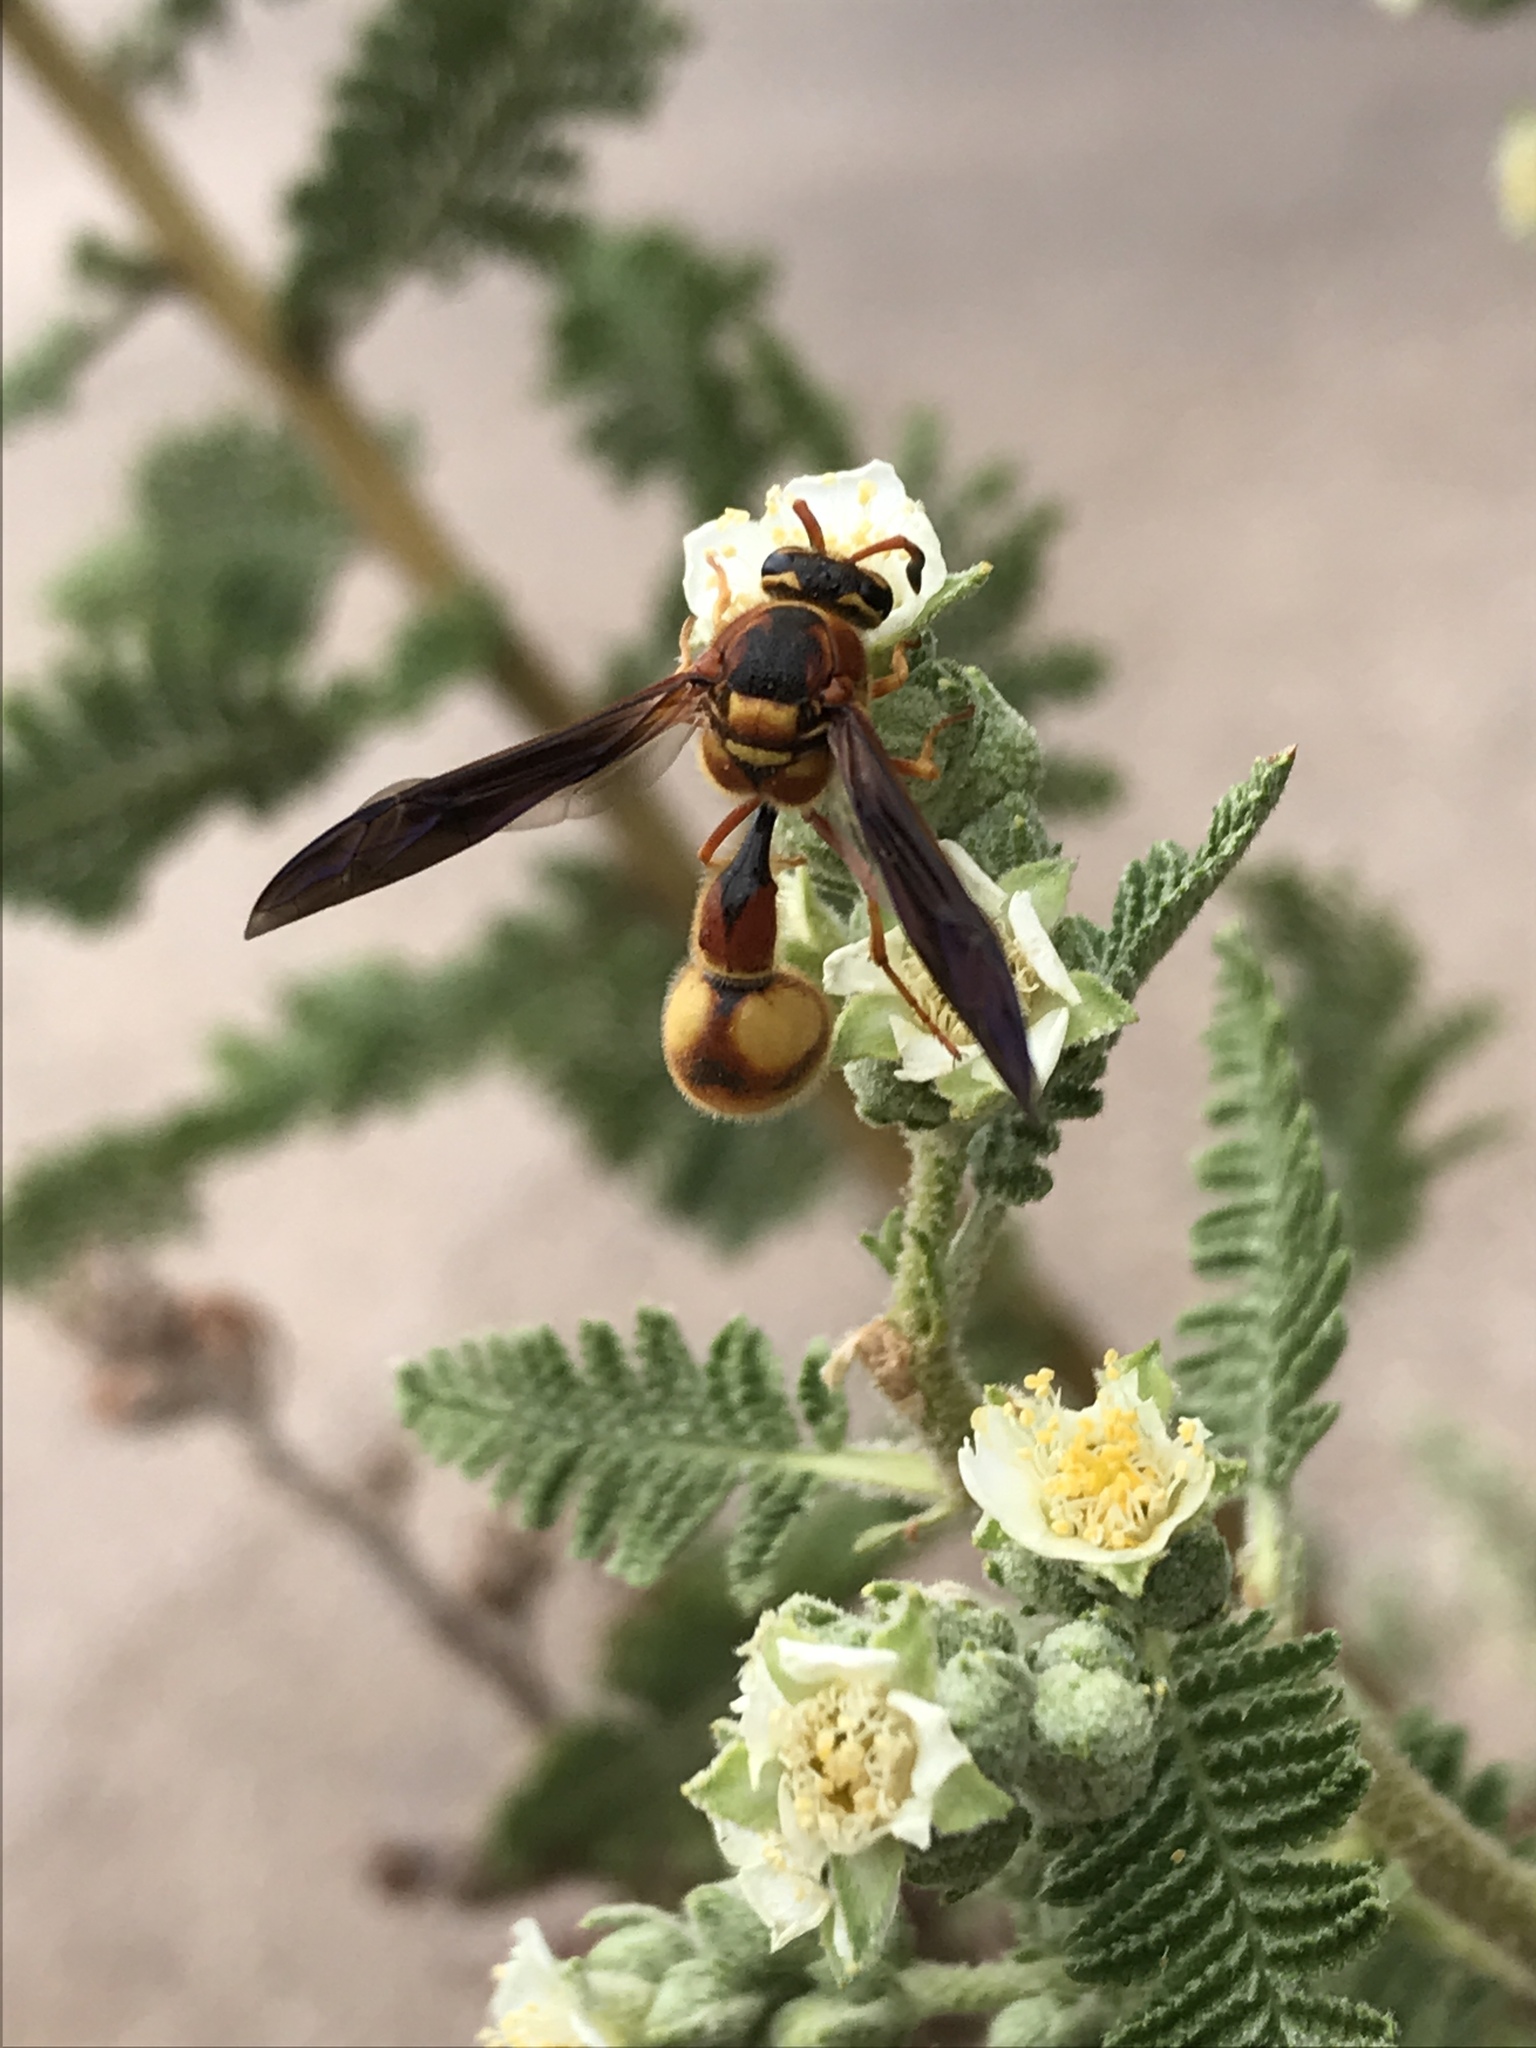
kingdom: Animalia
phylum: Arthropoda
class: Insecta
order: Hymenoptera
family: Vespidae
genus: Eumenes
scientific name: Eumenes bollii
